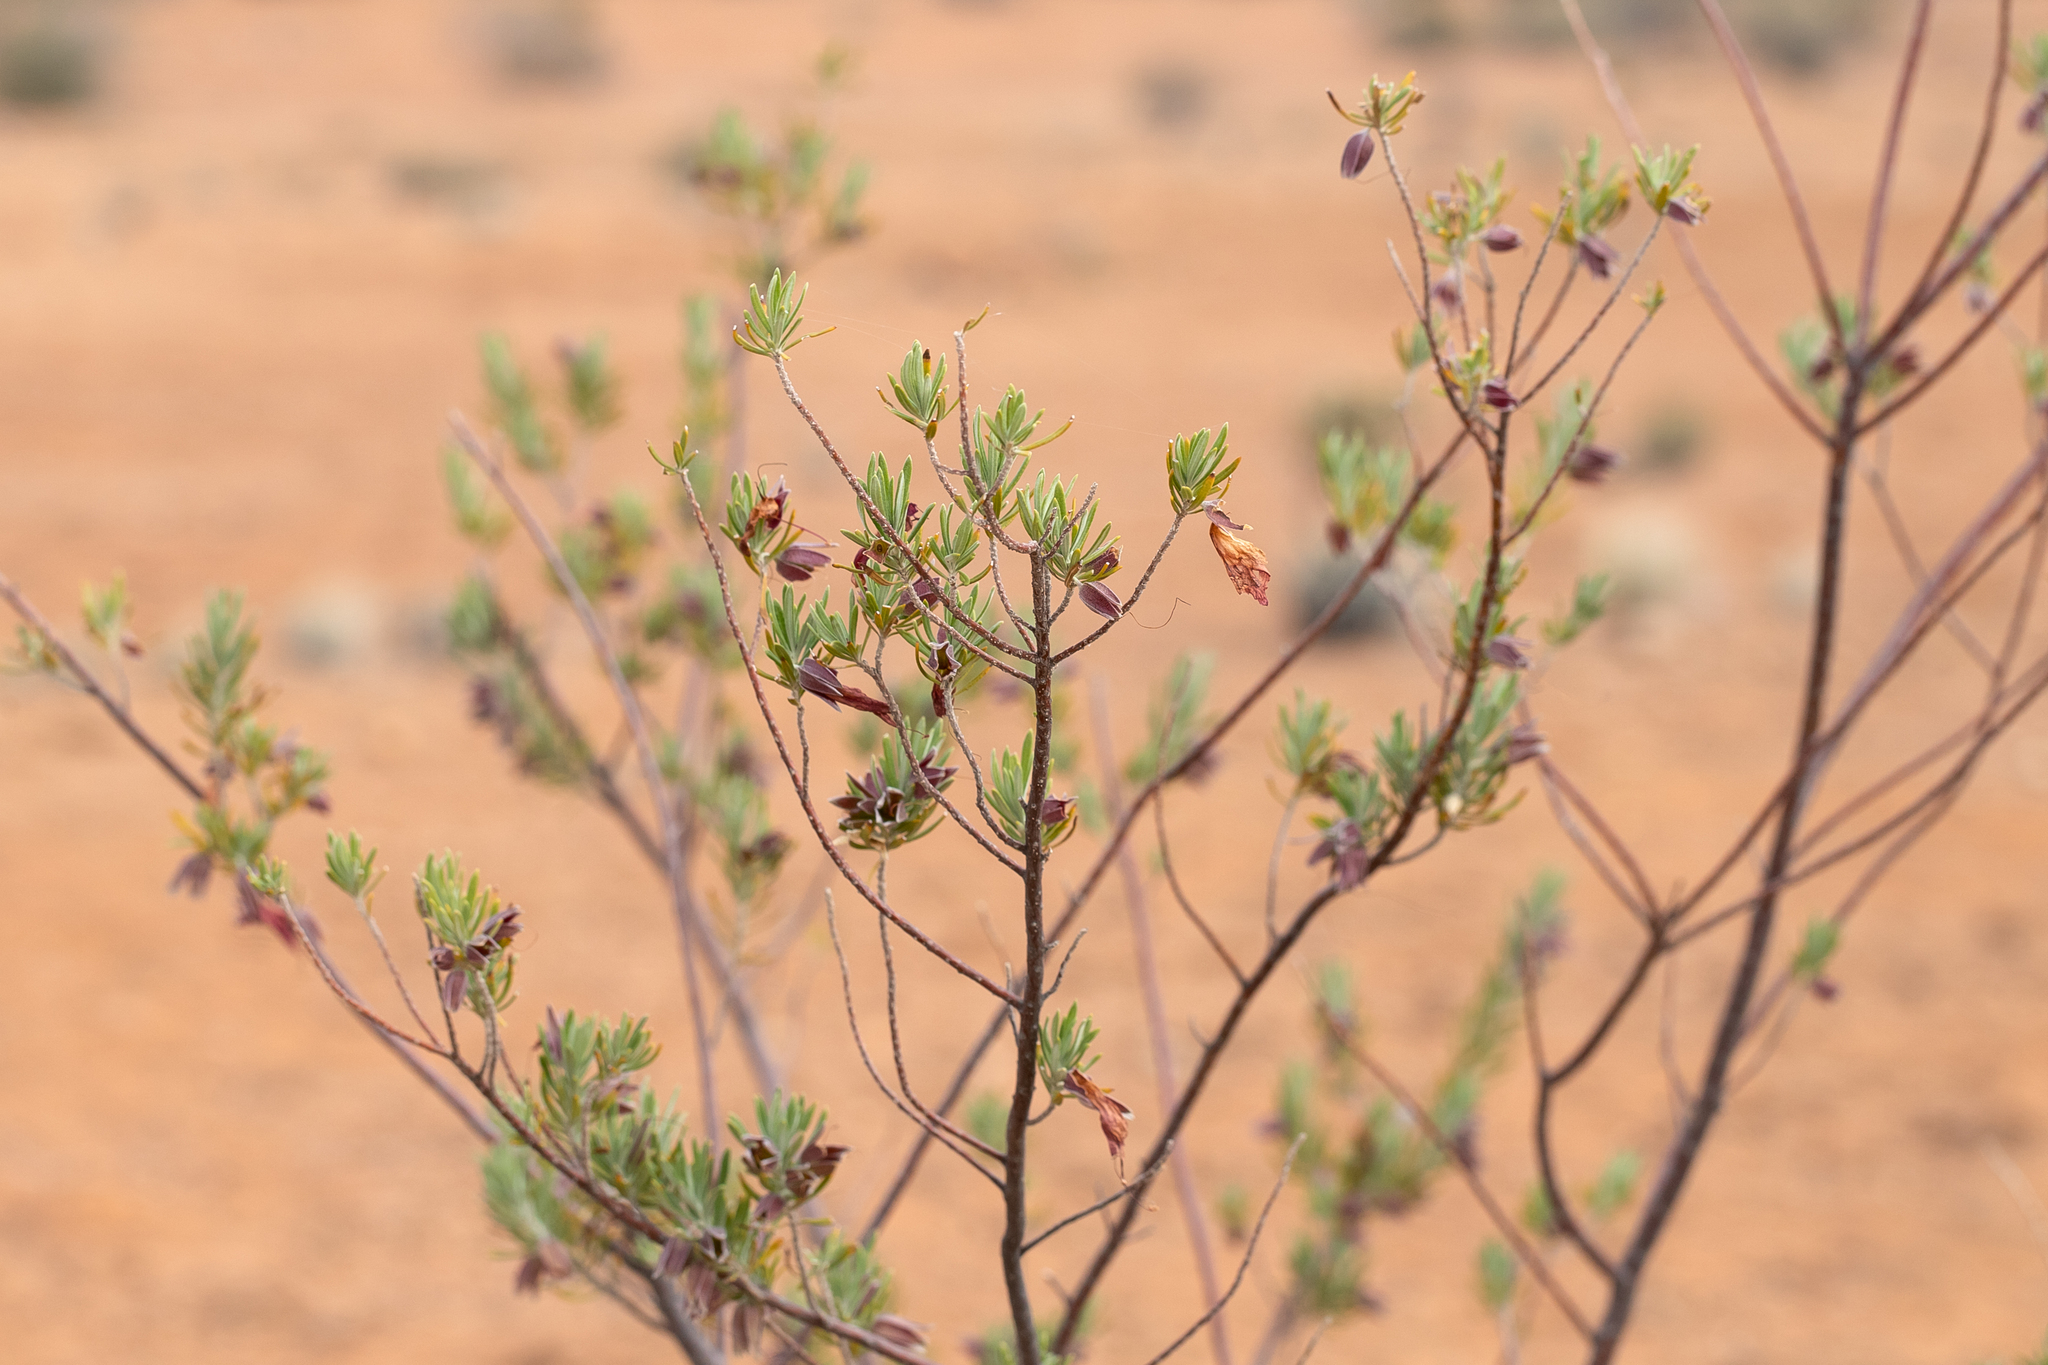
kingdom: Plantae
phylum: Tracheophyta
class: Magnoliopsida
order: Lamiales
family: Scrophulariaceae
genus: Eremophila
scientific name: Eremophila latrobei
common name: Crimson turkeybush
